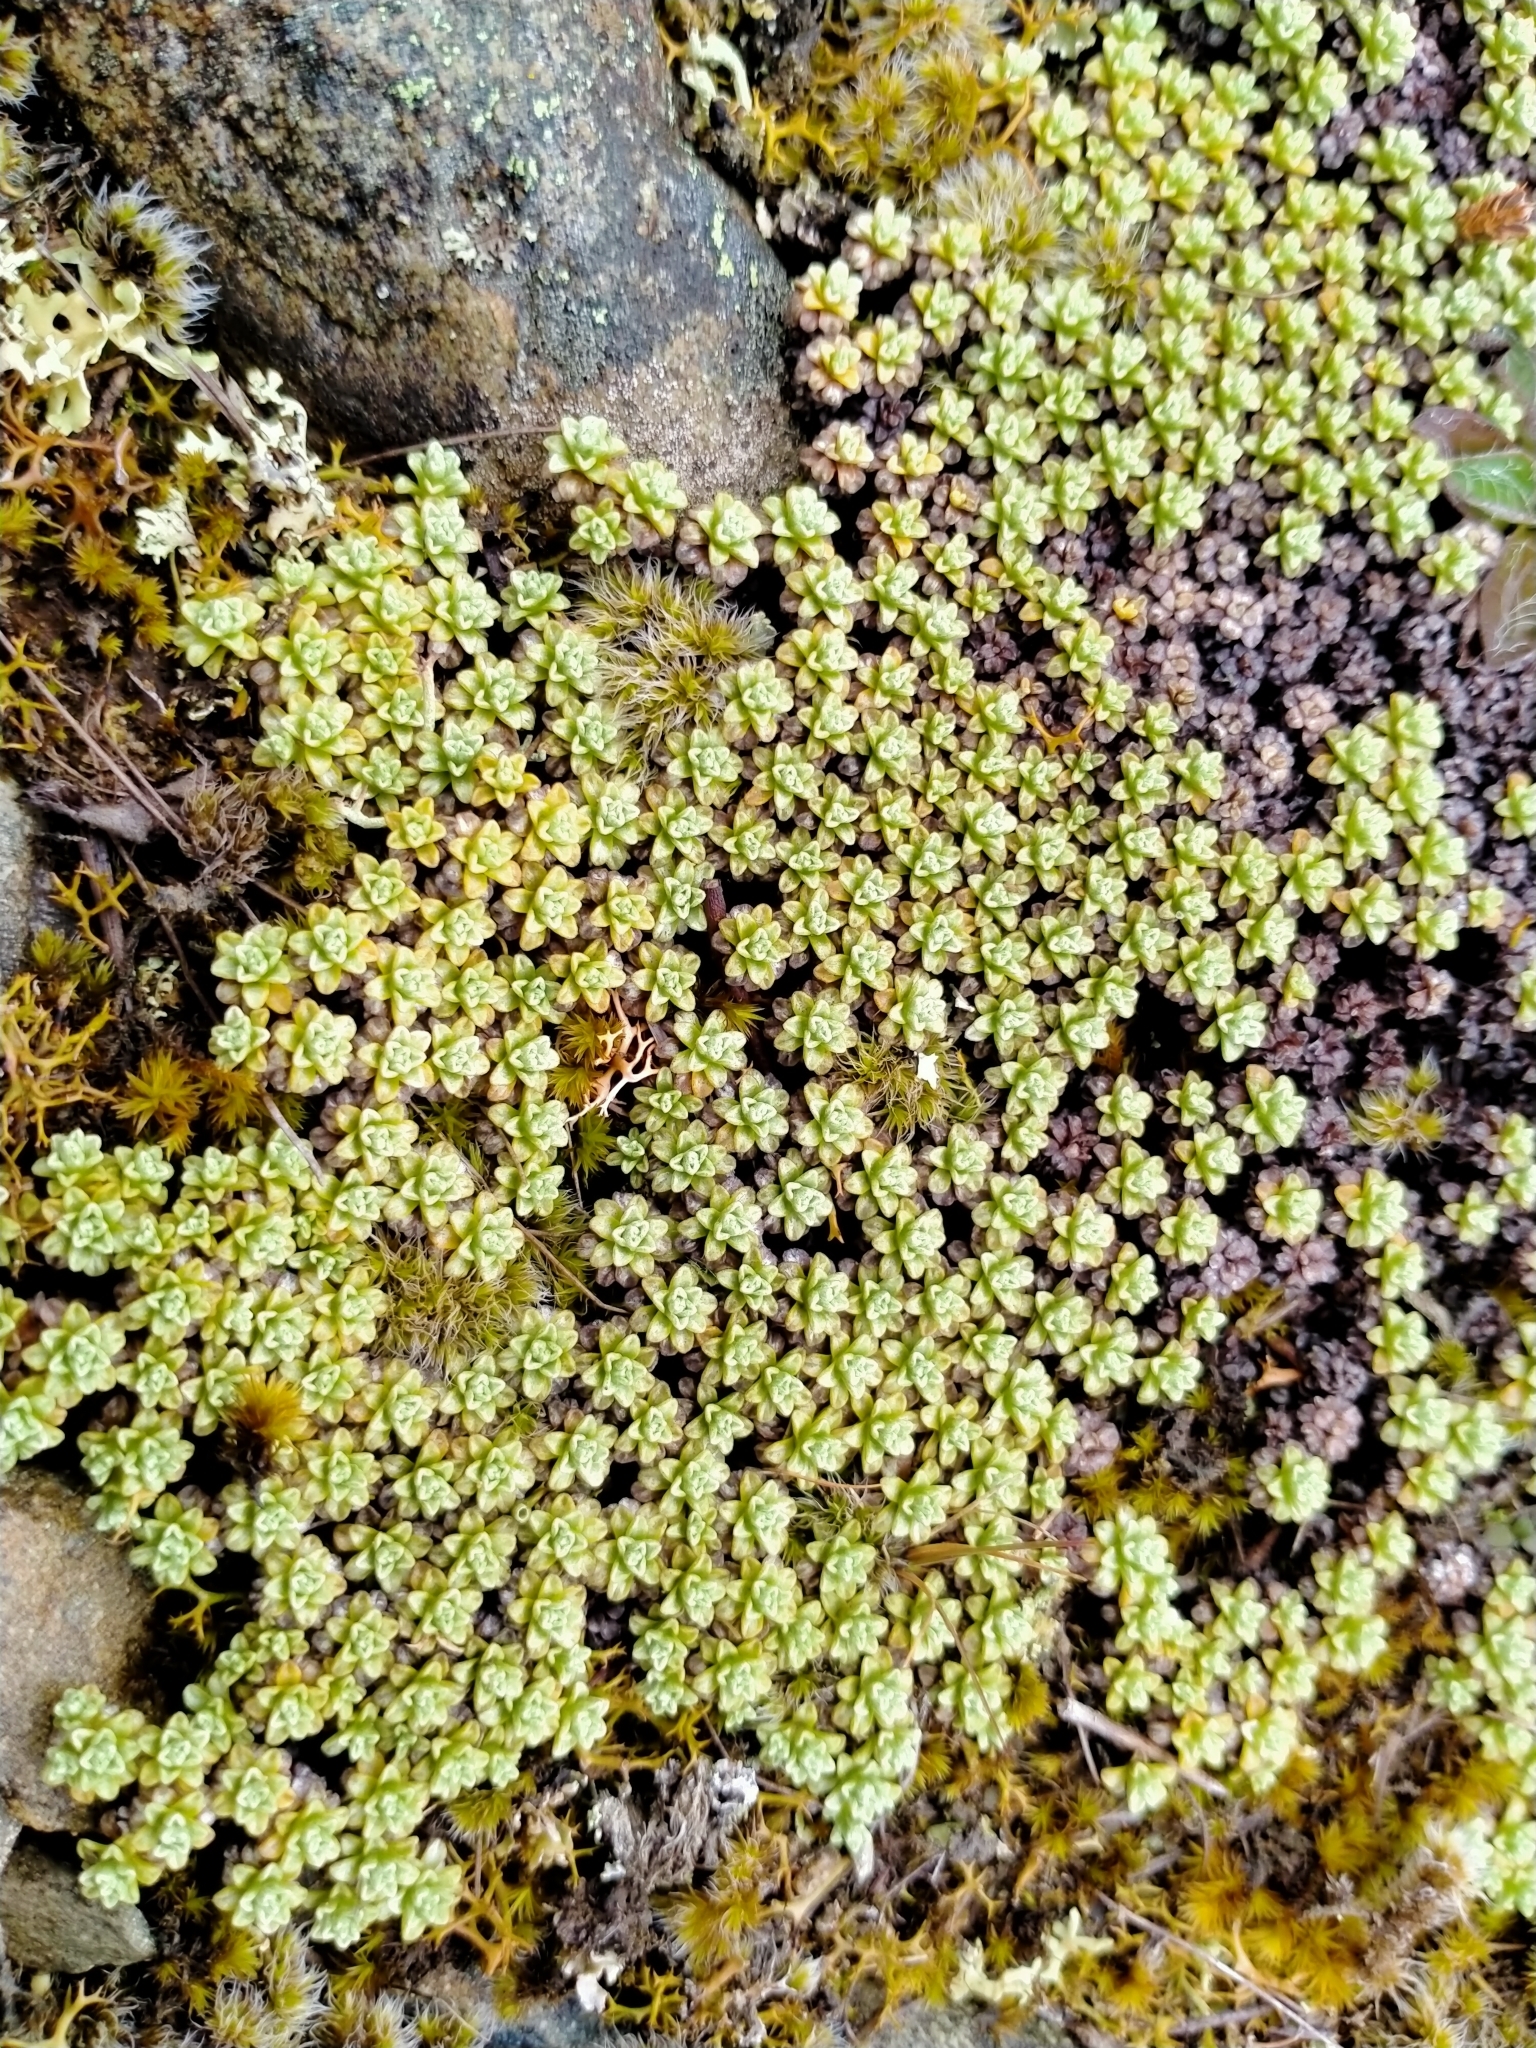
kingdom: Plantae
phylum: Tracheophyta
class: Magnoliopsida
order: Asterales
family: Asteraceae
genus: Raoulia
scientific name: Raoulia parkii
